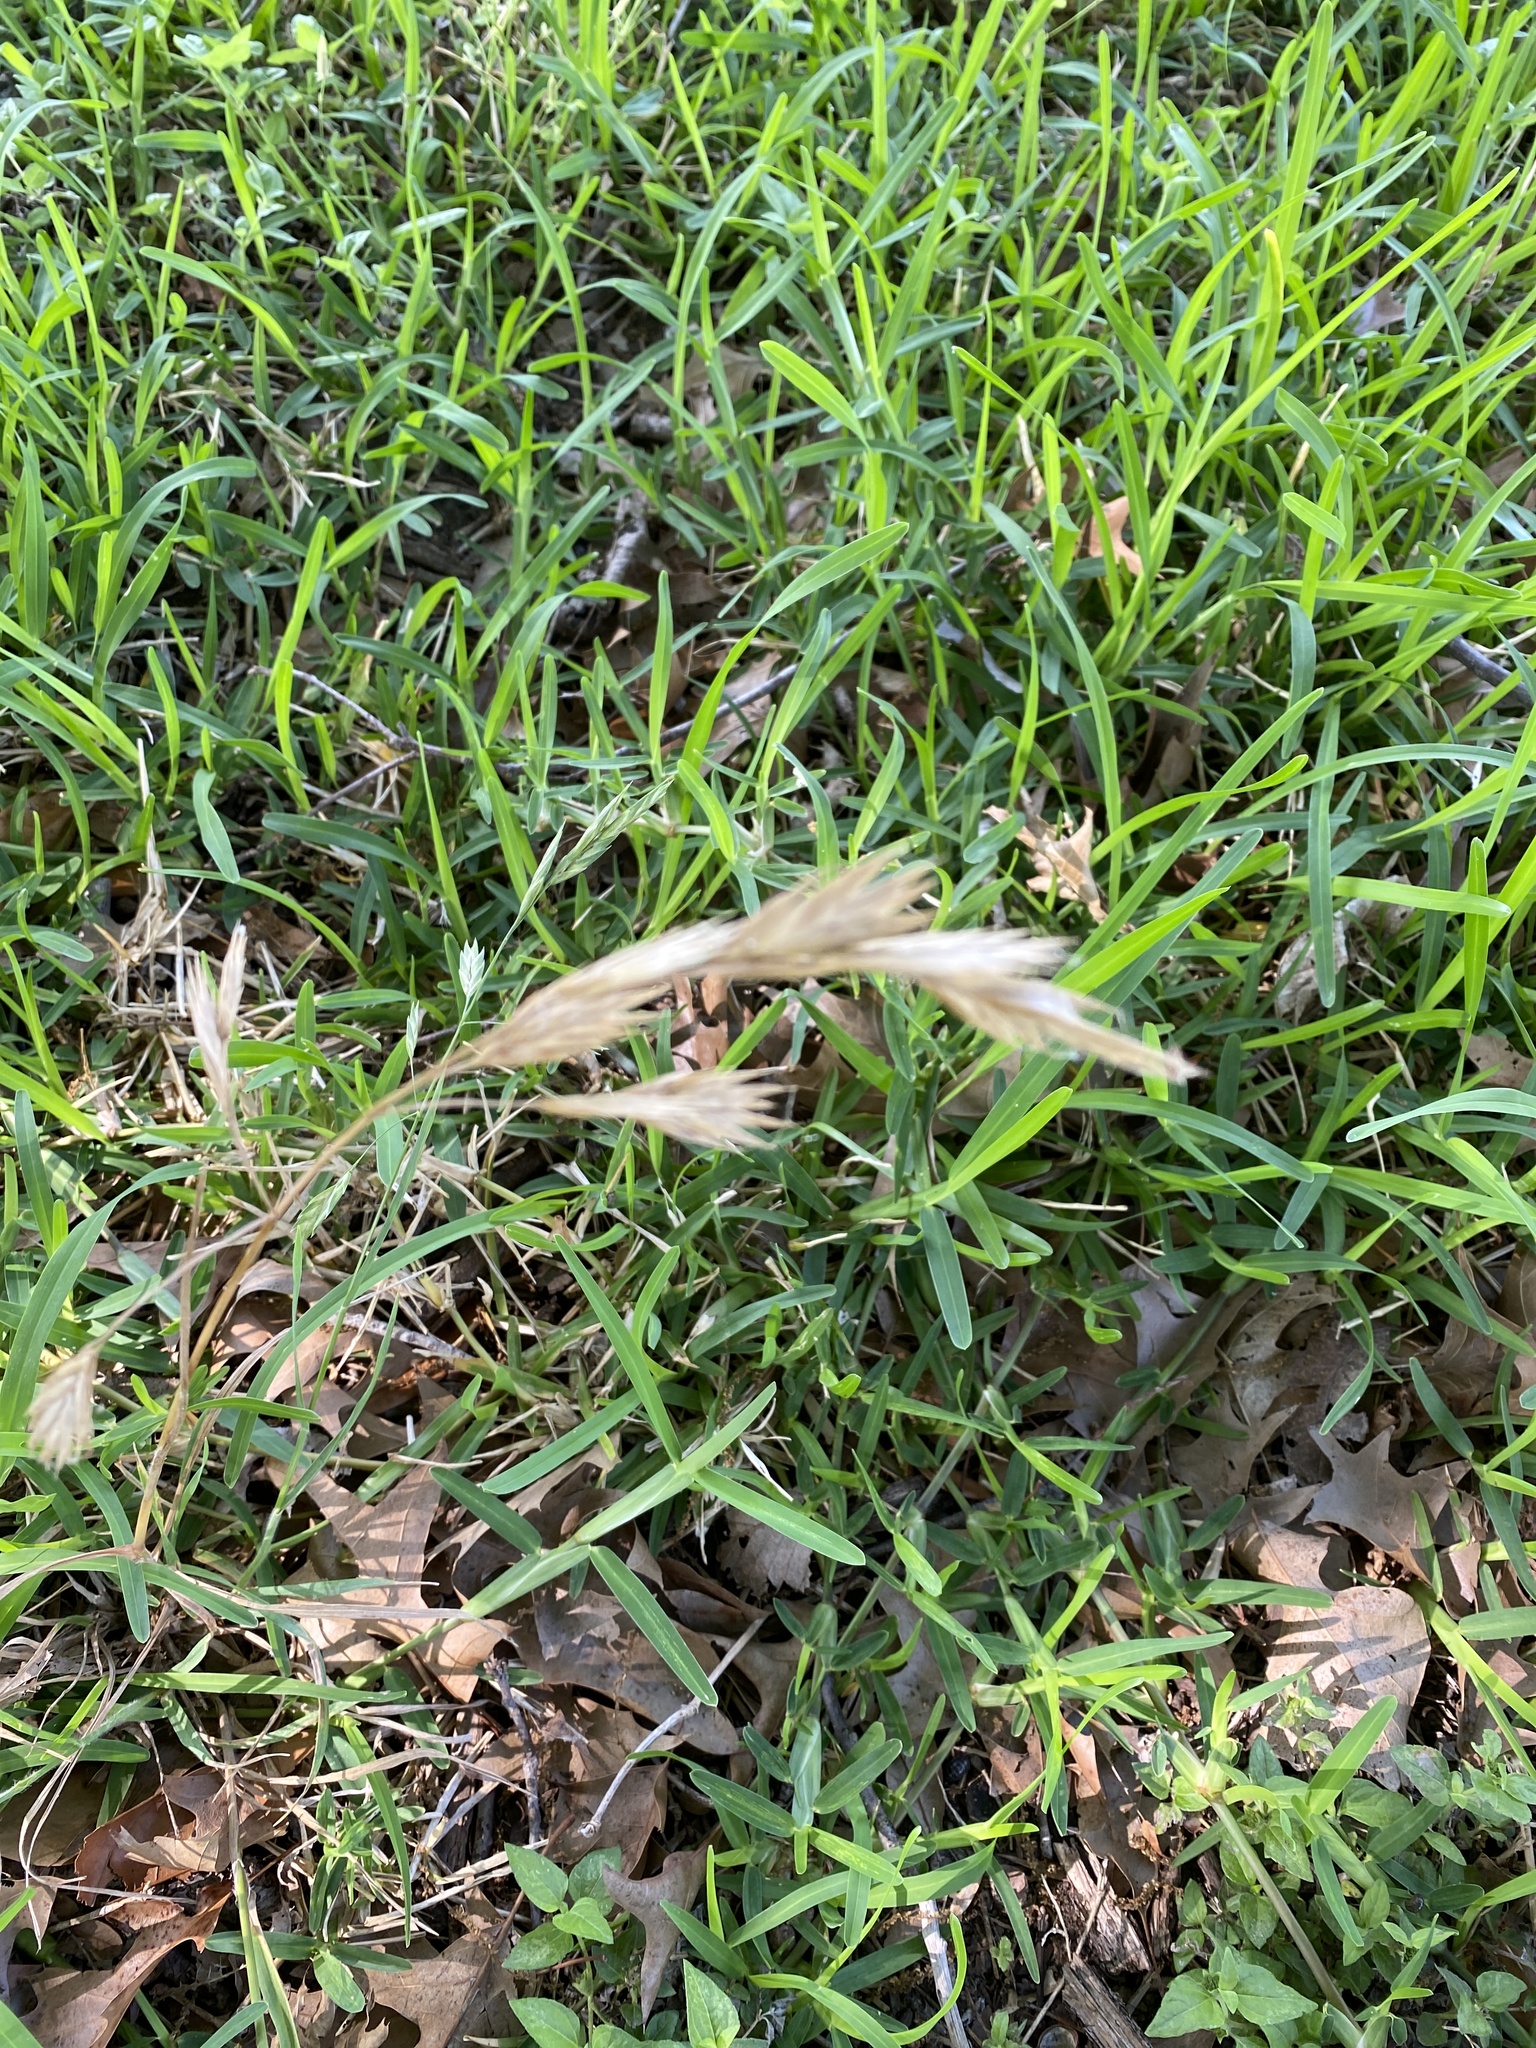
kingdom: Plantae
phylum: Tracheophyta
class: Liliopsida
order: Poales
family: Poaceae
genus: Bromus
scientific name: Bromus catharticus
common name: Rescuegrass
